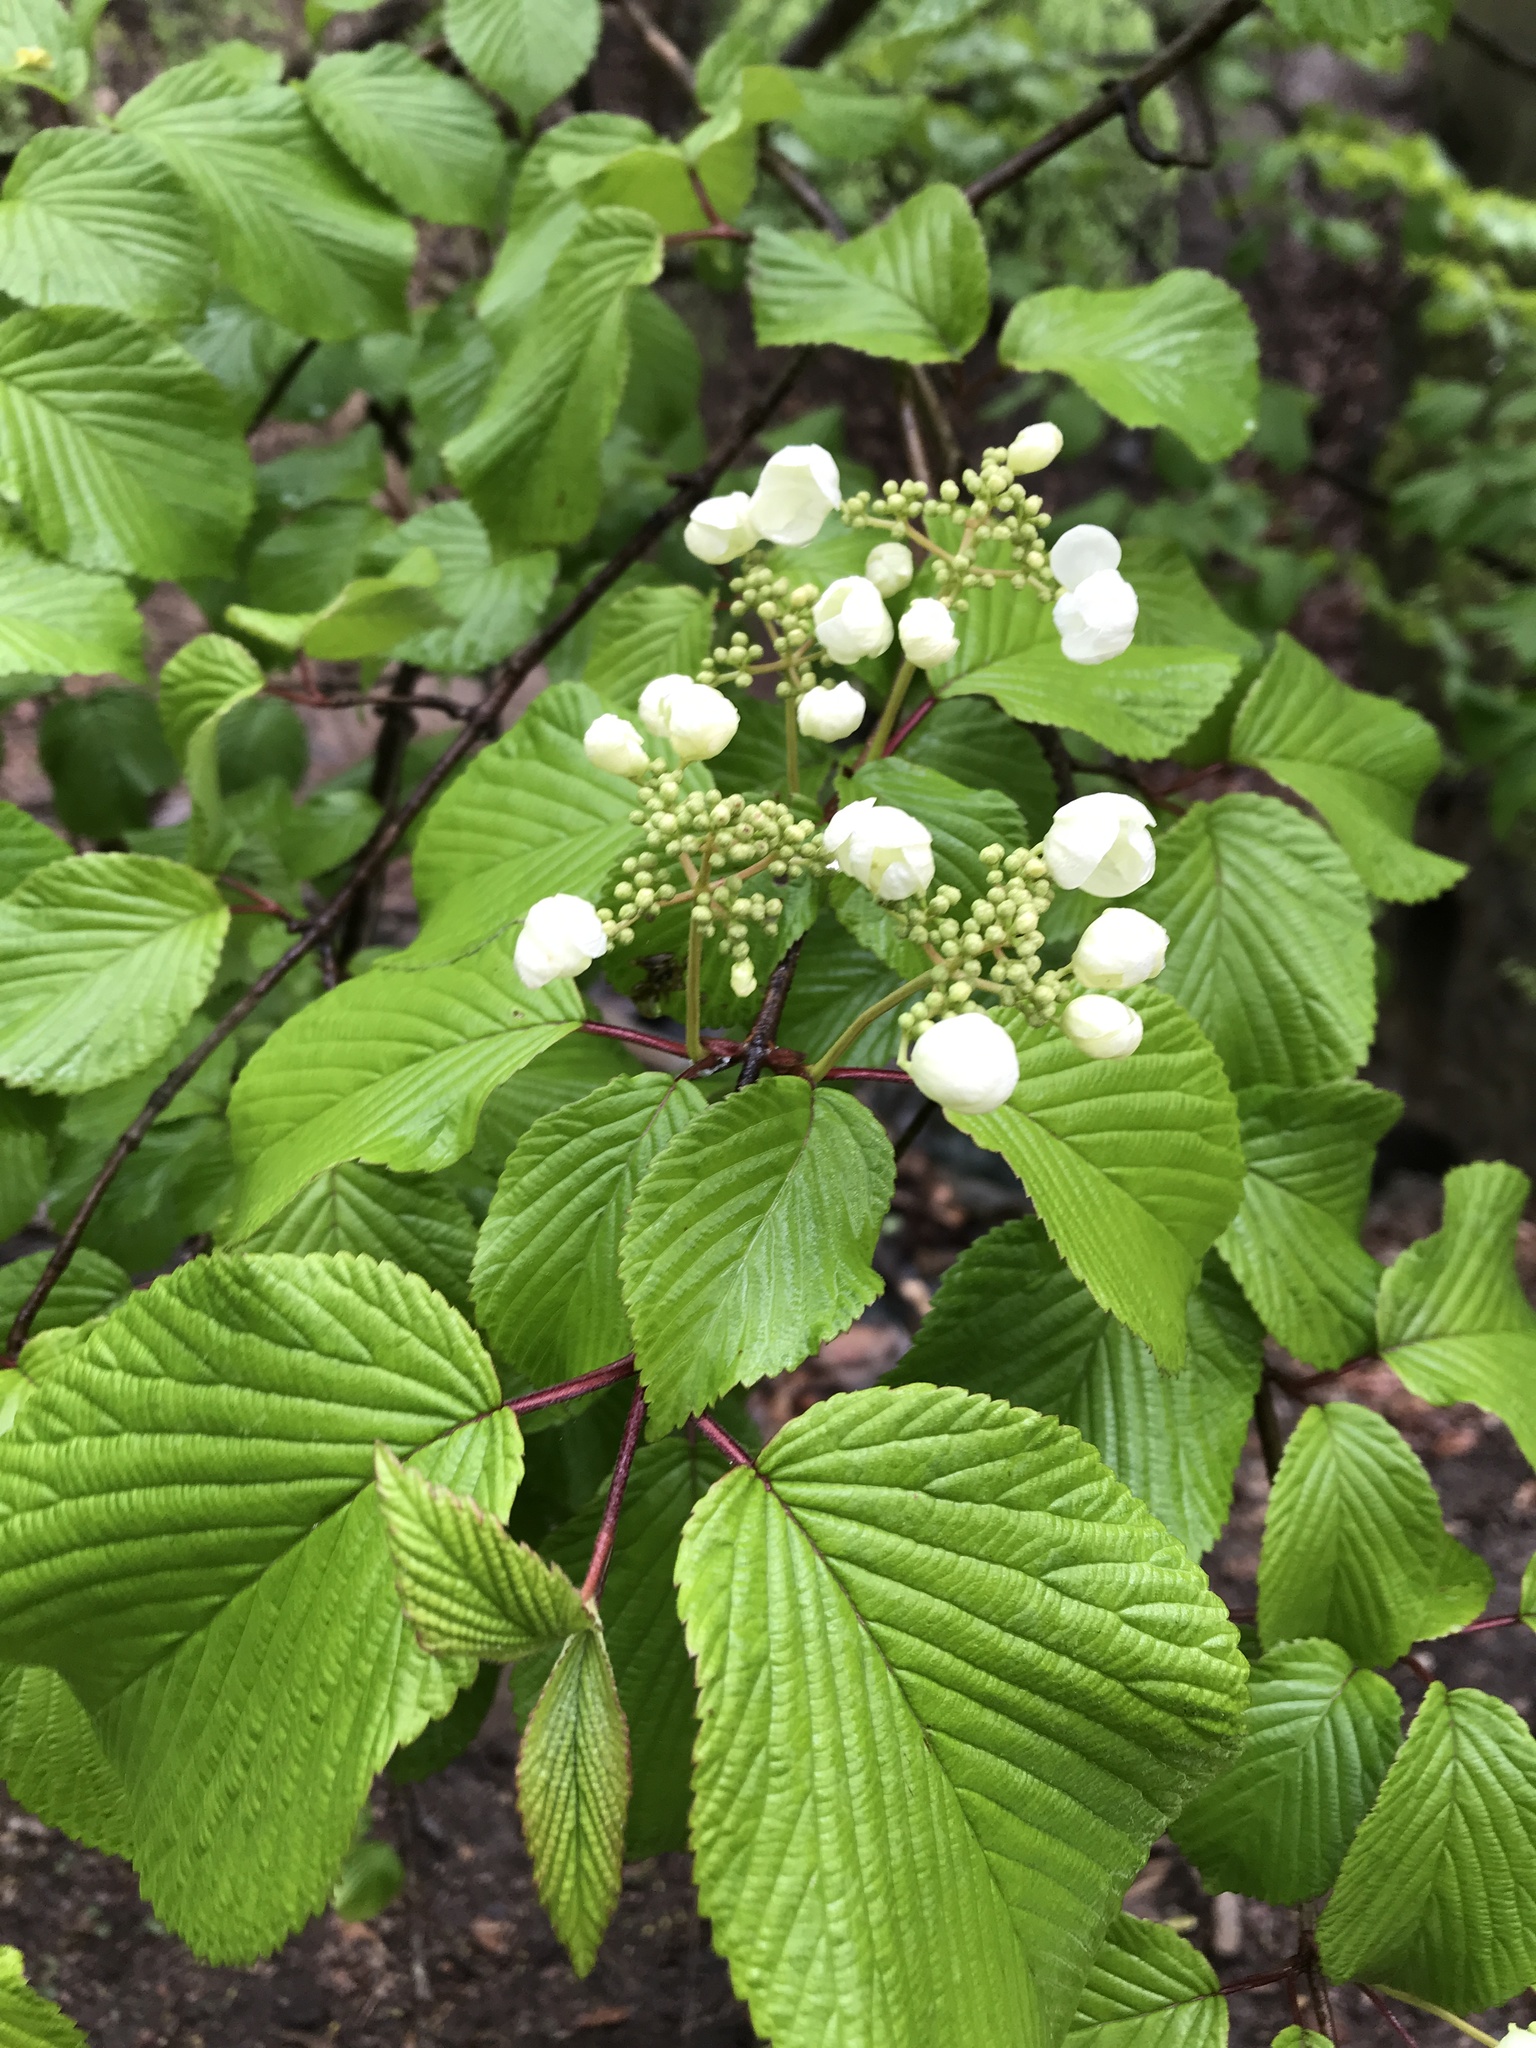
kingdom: Plantae
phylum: Tracheophyta
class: Magnoliopsida
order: Dipsacales
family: Viburnaceae
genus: Viburnum
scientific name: Viburnum plicatum
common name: Japanese snowball
